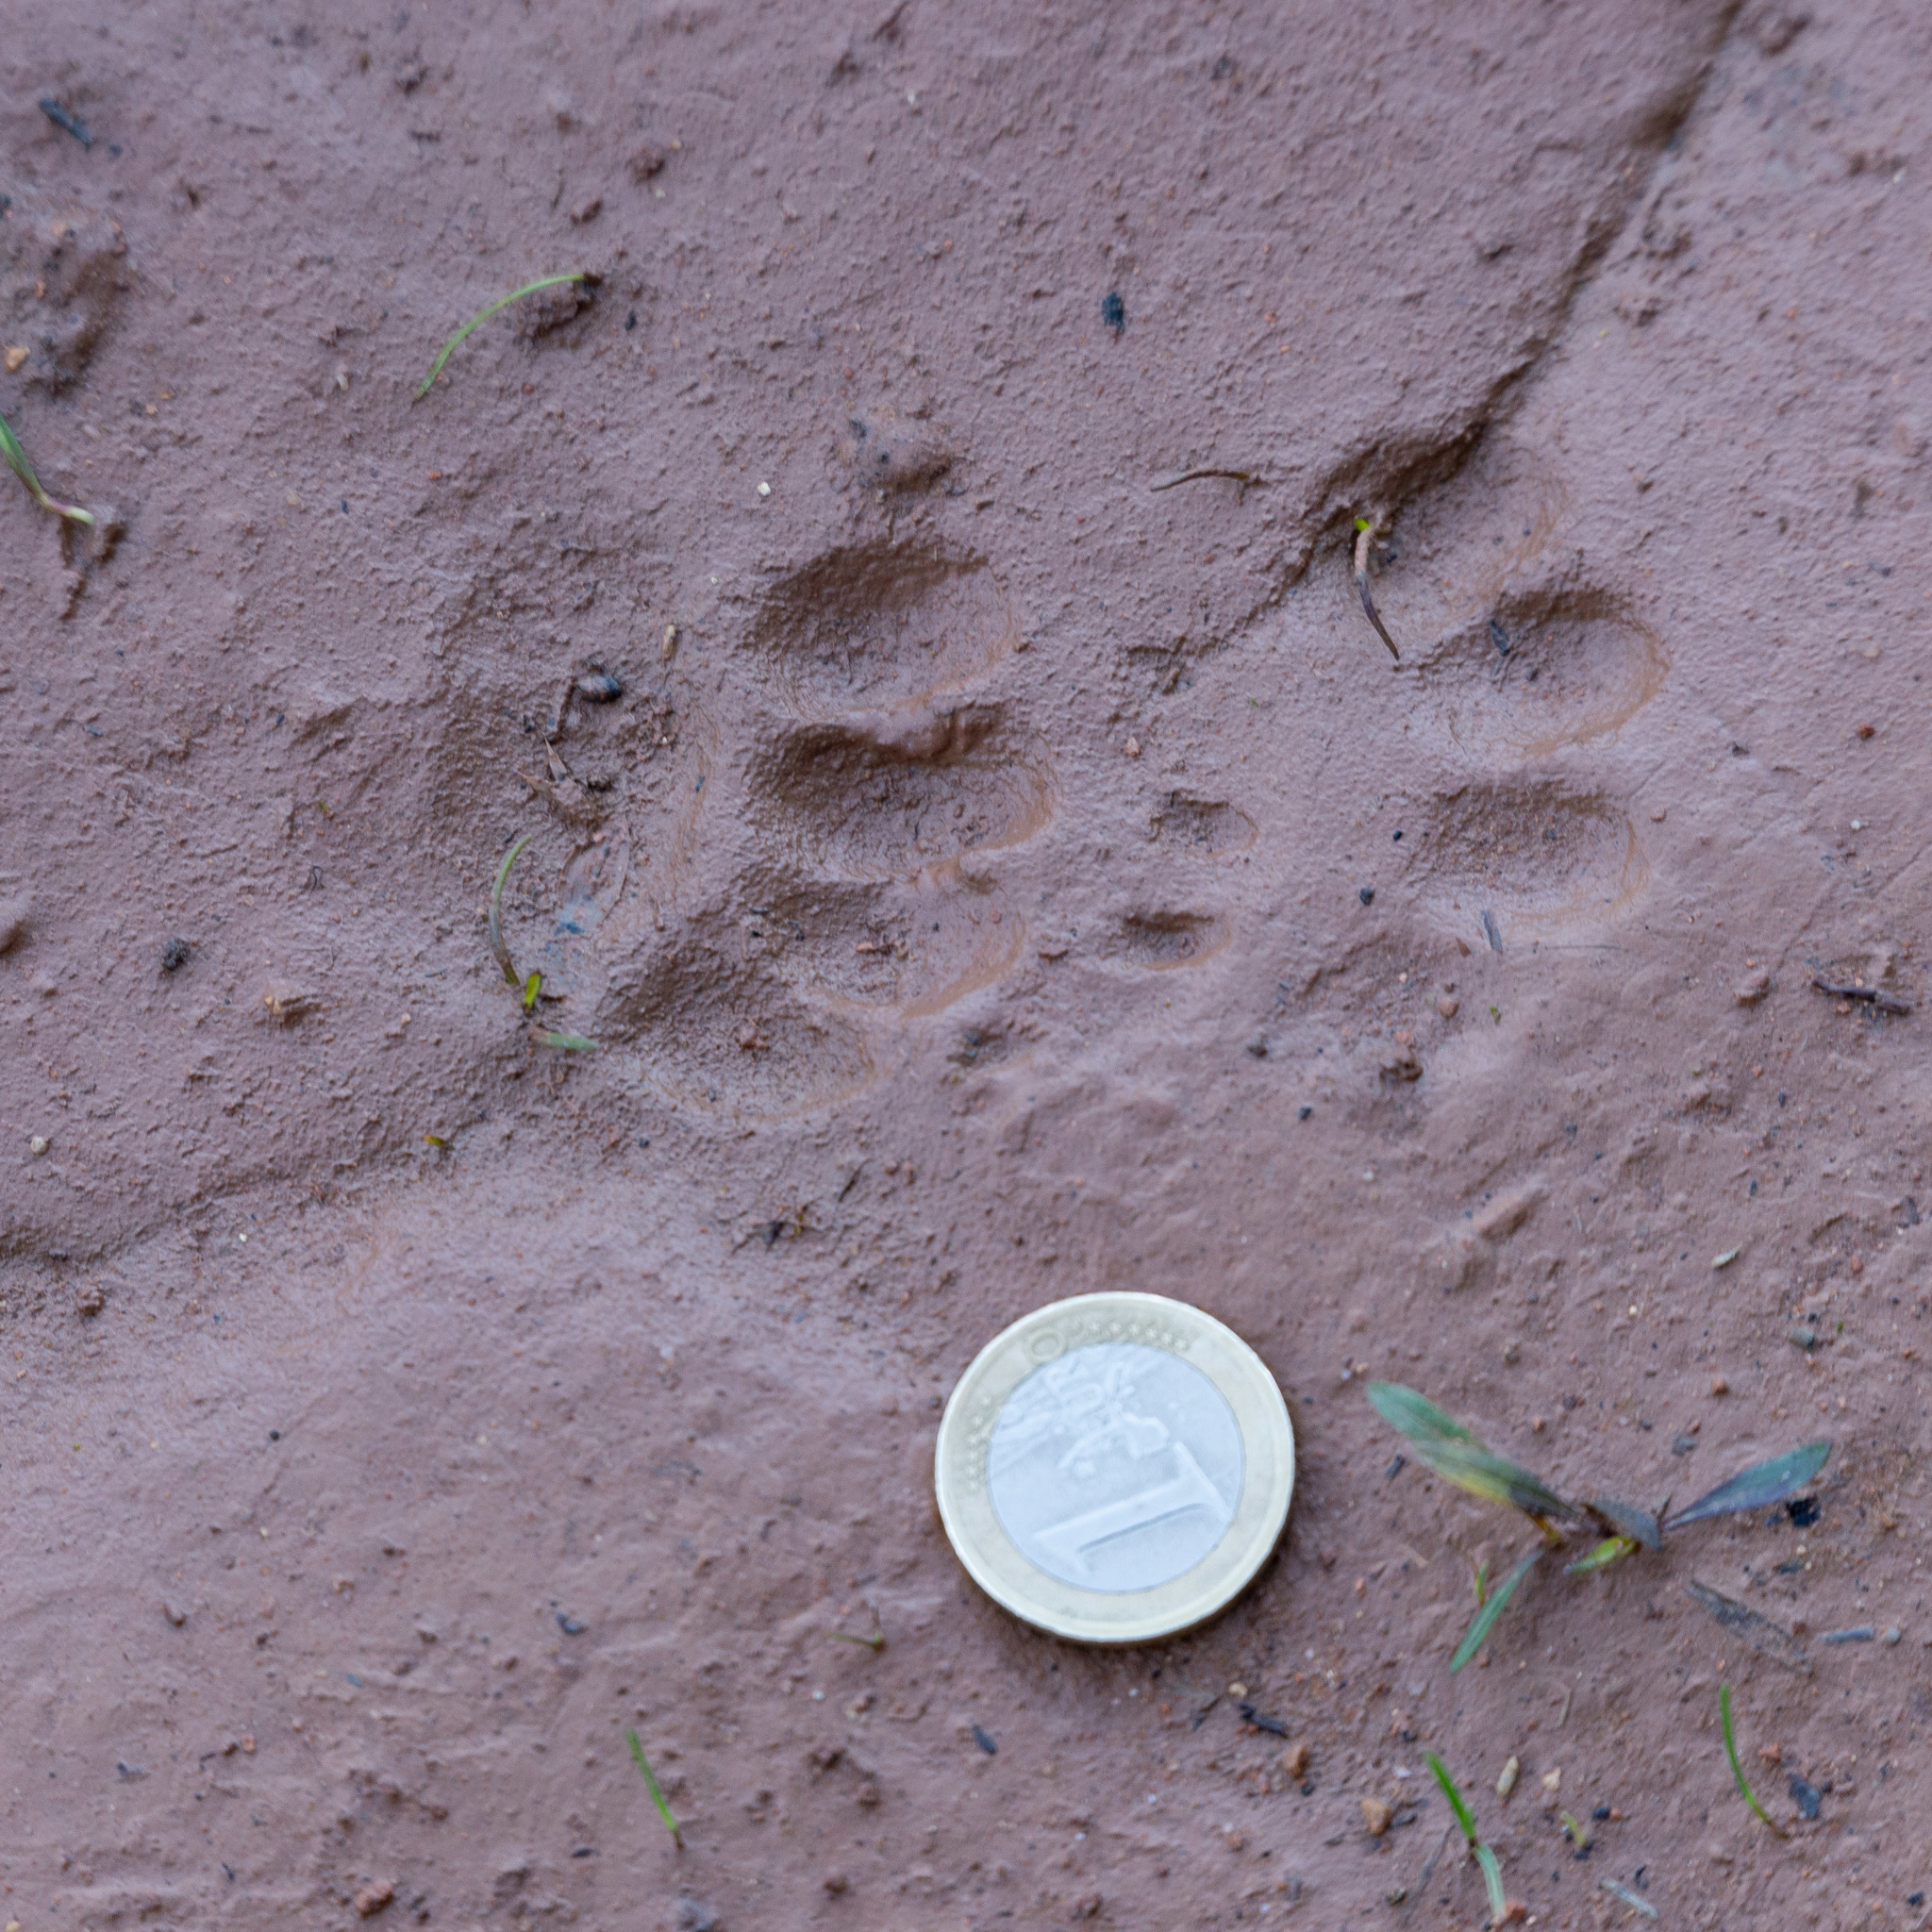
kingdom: Animalia
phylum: Chordata
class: Mammalia
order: Carnivora
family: Mustelidae
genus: Meles
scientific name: Meles meles
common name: Eurasian badger
